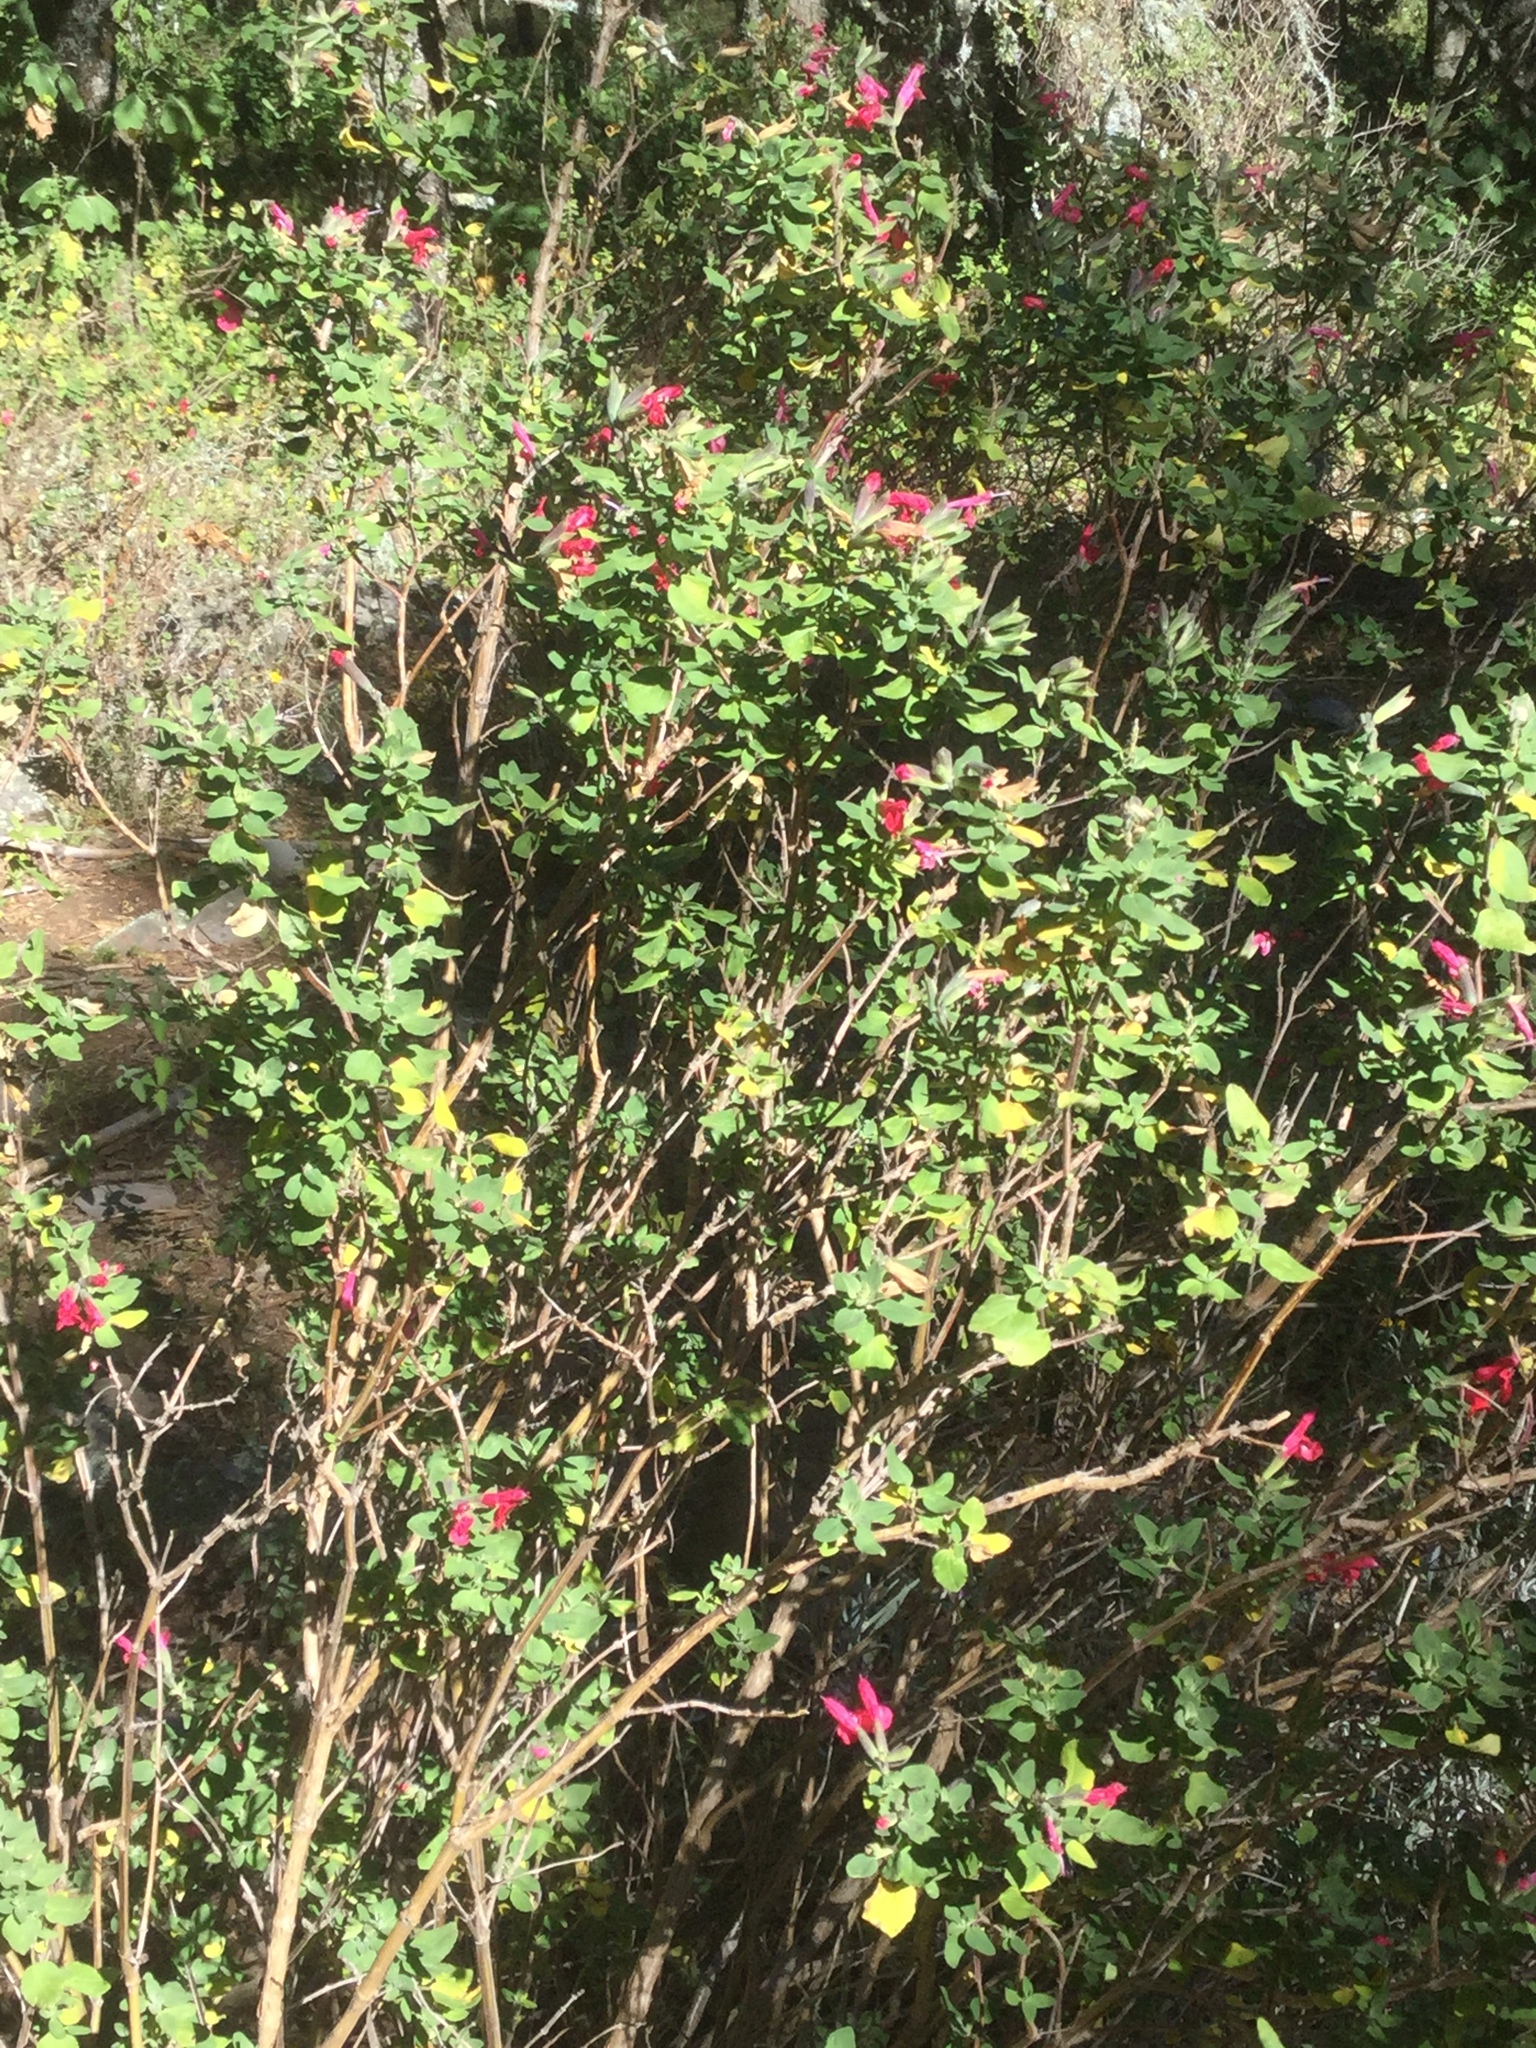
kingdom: Plantae
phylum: Tracheophyta
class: Magnoliopsida
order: Lamiales
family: Lamiaceae
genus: Salvia
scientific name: Salvia microphylla
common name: Baby sage
